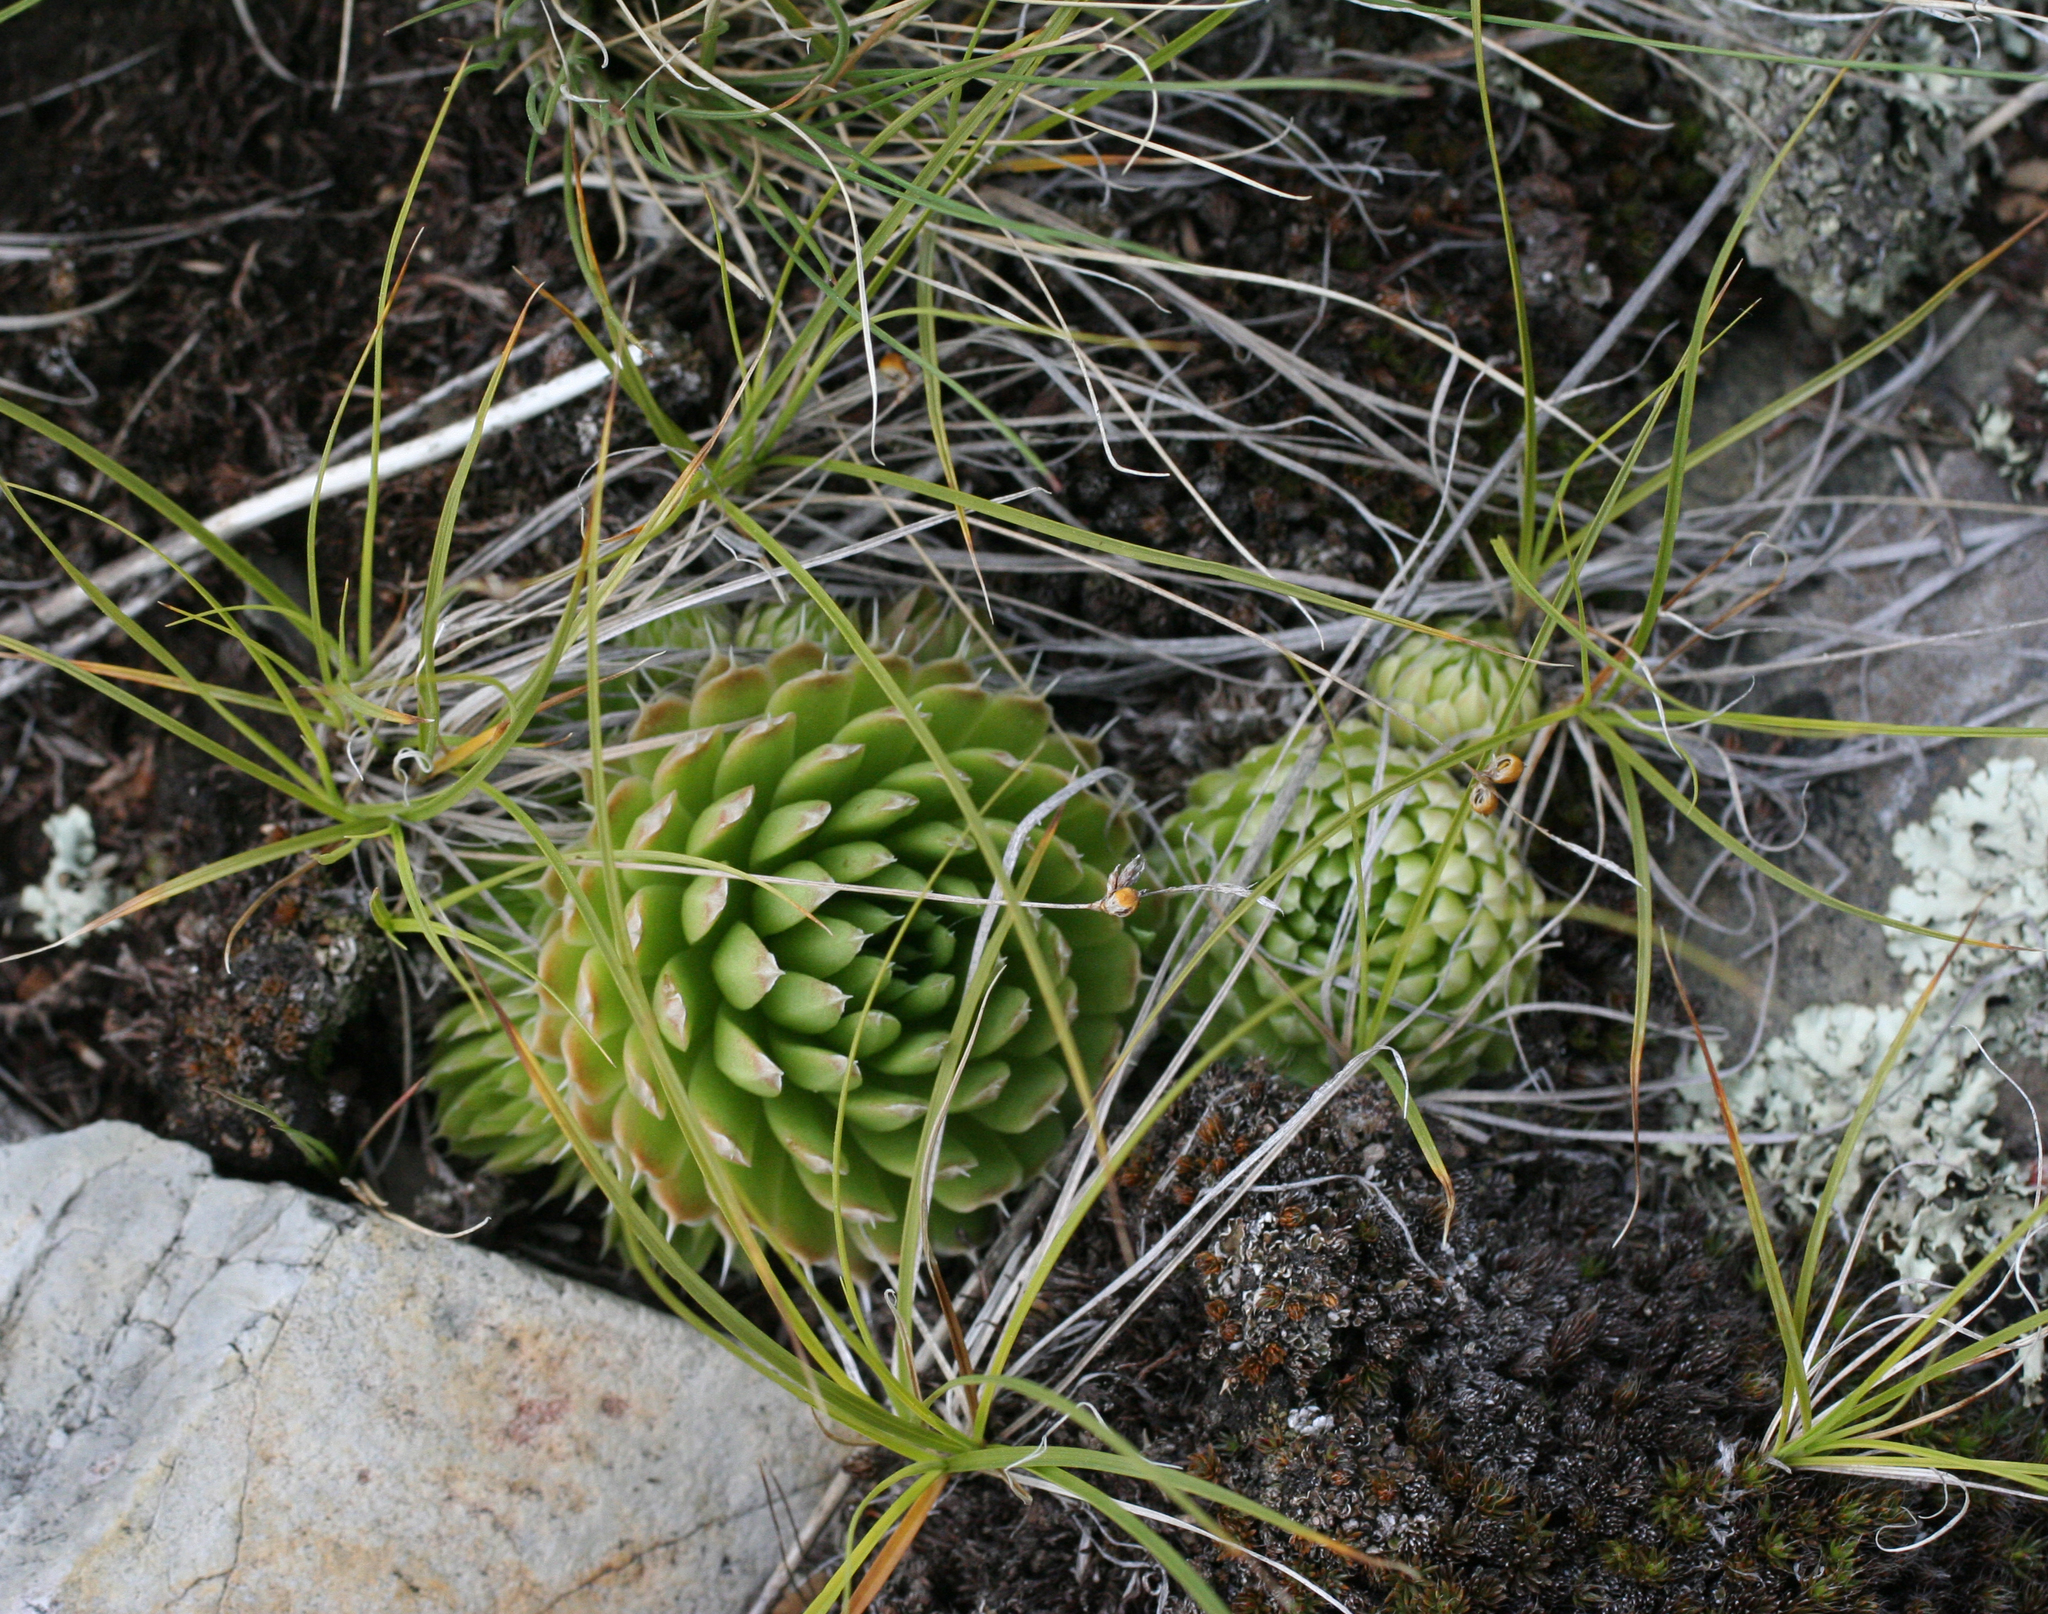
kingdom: Plantae
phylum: Tracheophyta
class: Magnoliopsida
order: Saxifragales
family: Crassulaceae
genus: Orostachys
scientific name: Orostachys spinosa
